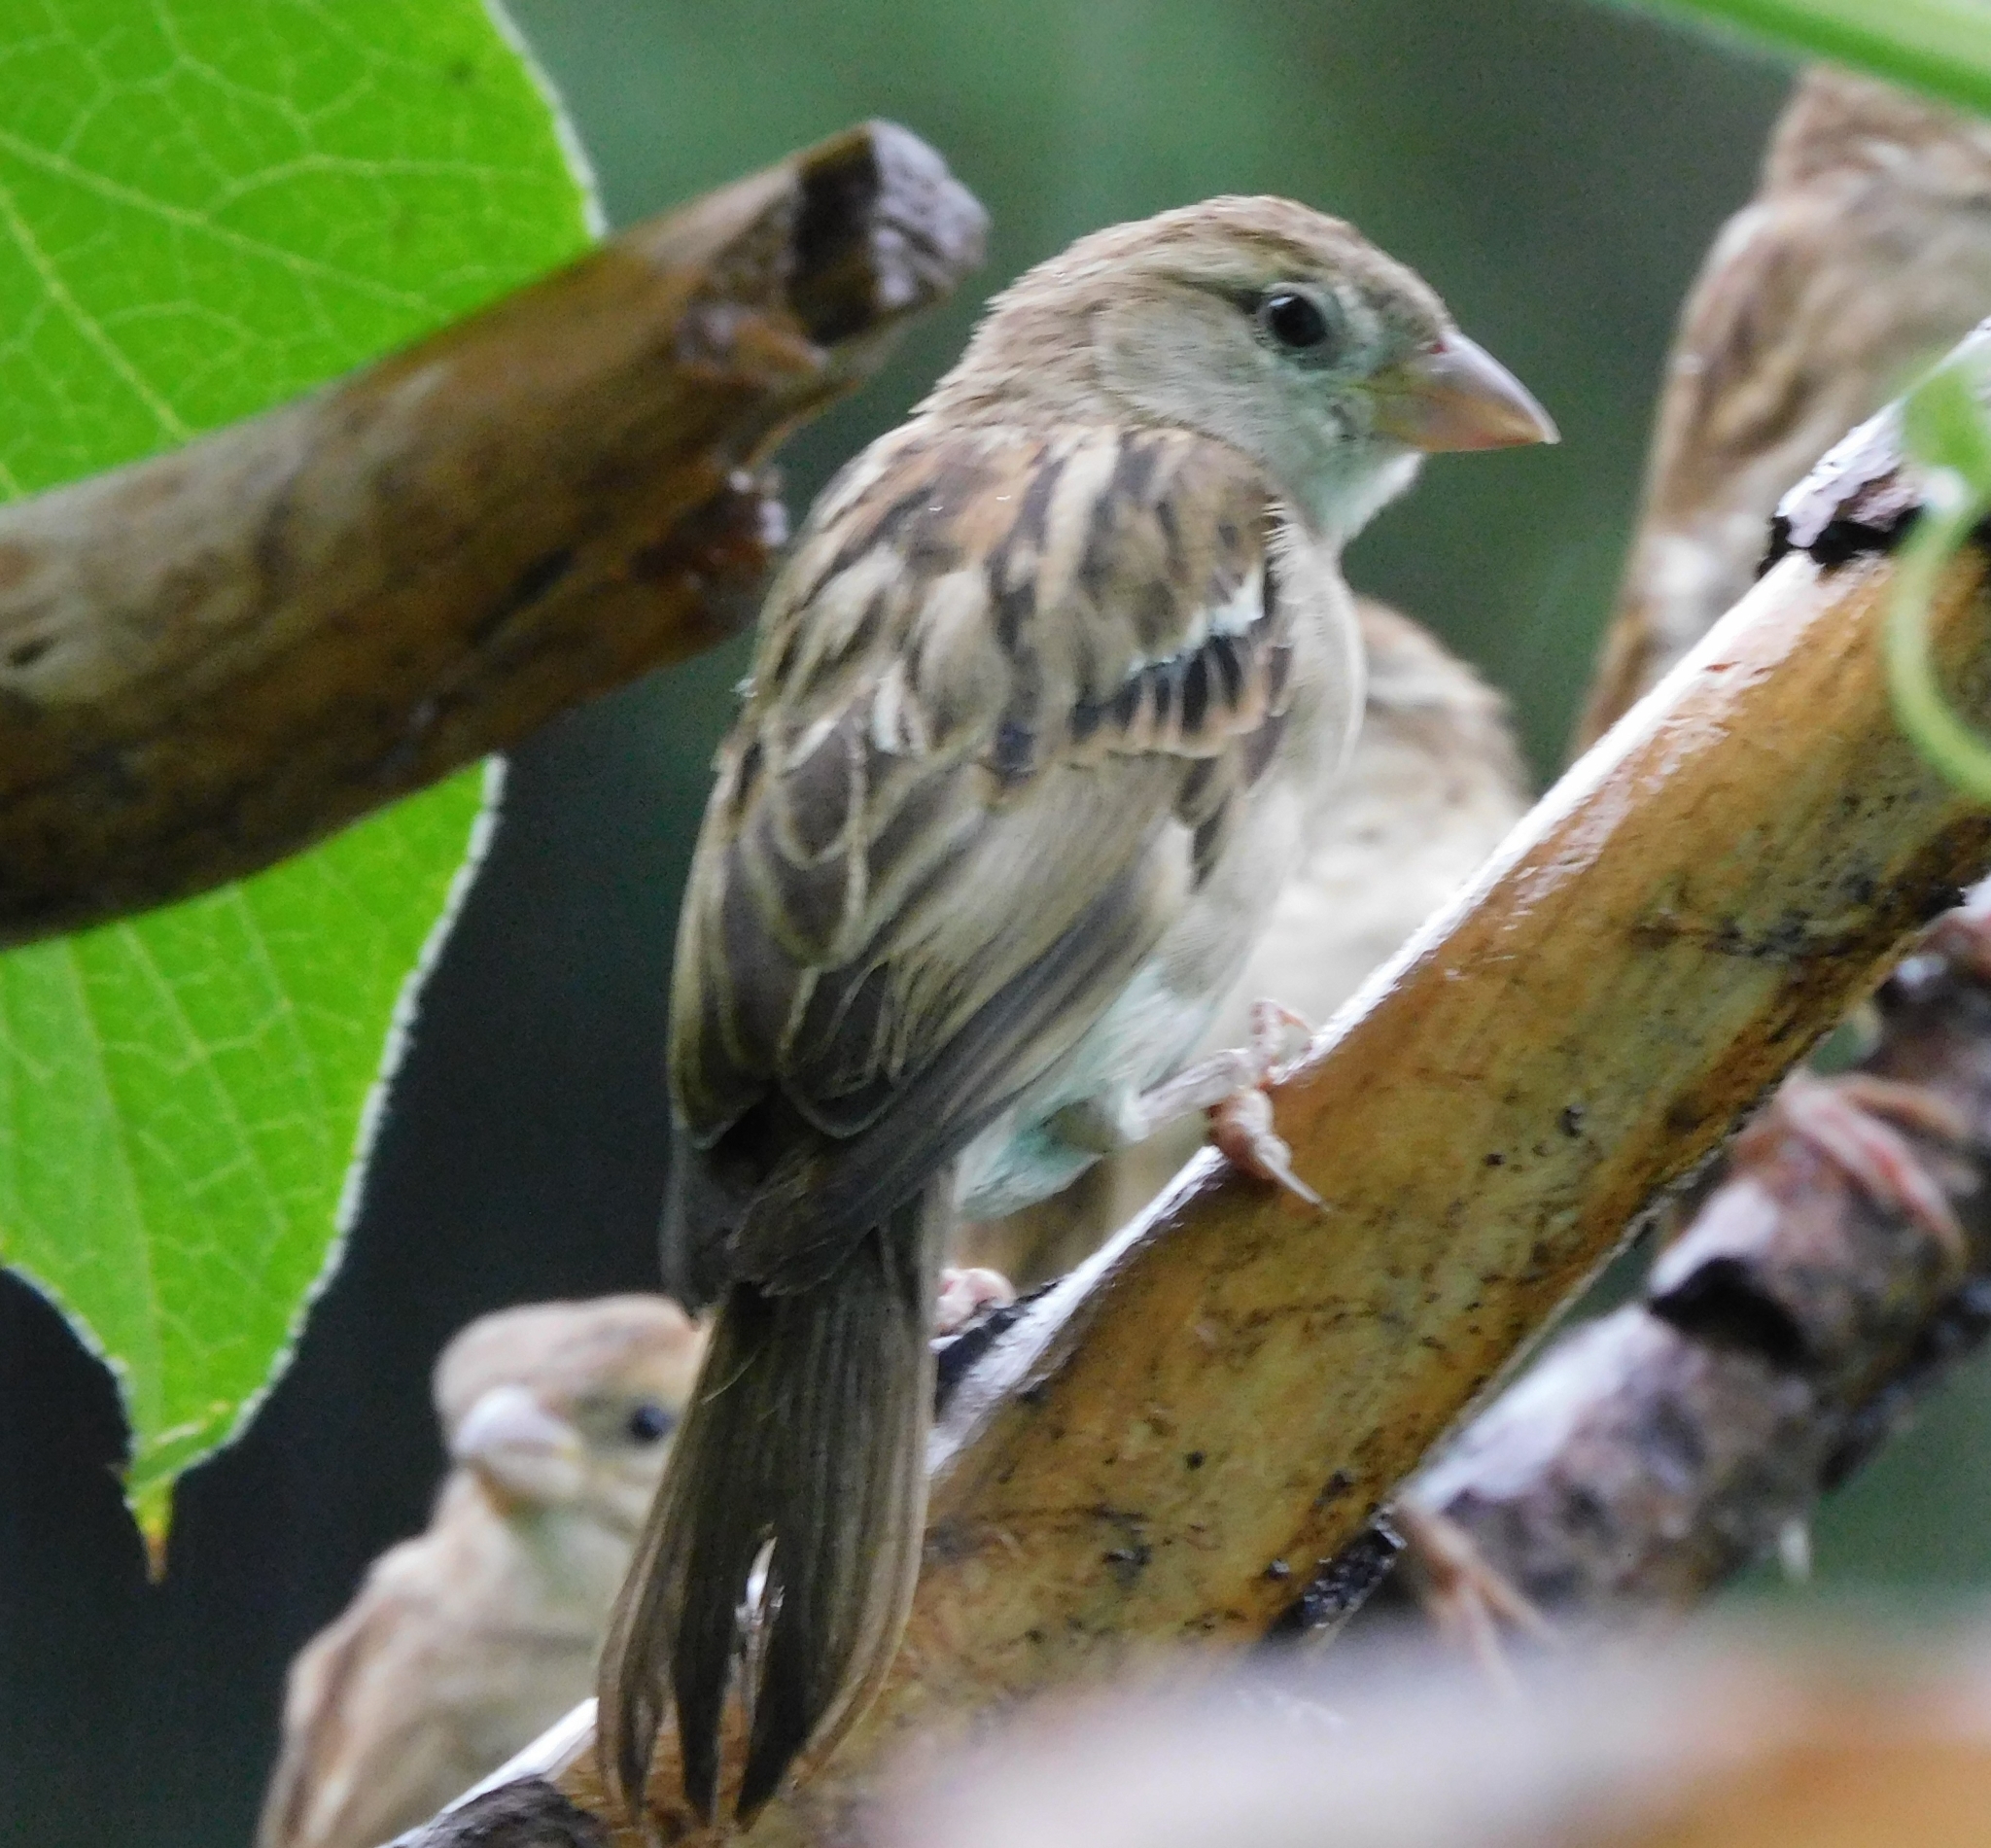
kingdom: Animalia
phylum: Chordata
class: Aves
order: Passeriformes
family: Passeridae
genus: Passer
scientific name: Passer domesticus
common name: House sparrow
